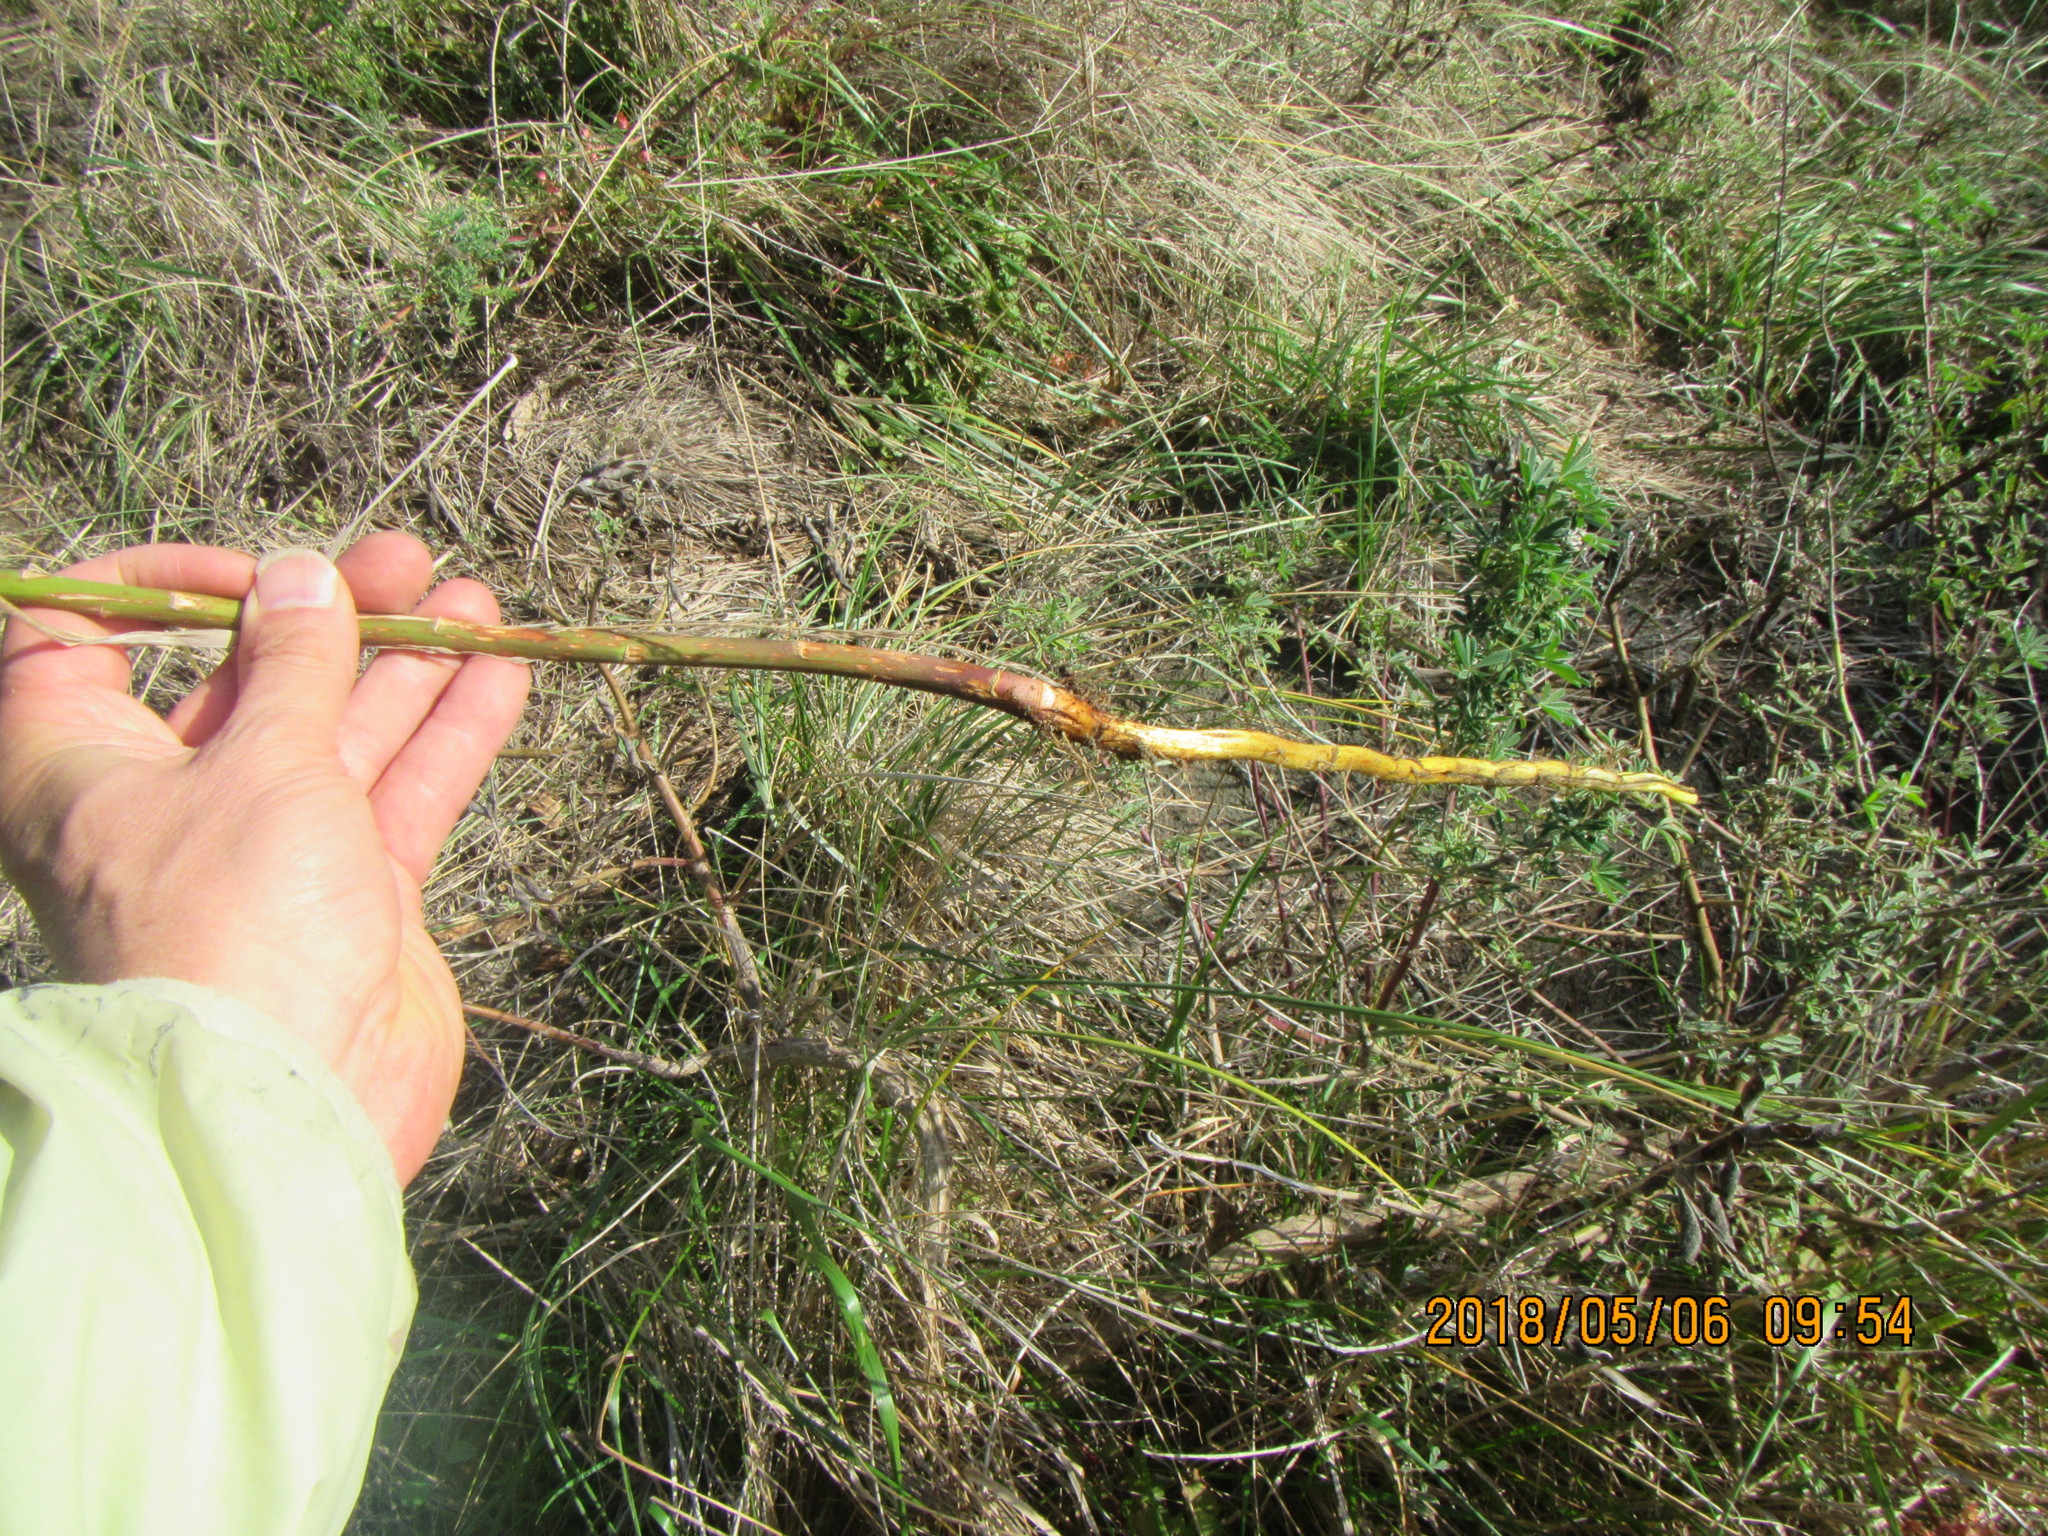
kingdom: Plantae
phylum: Tracheophyta
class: Liliopsida
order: Liliales
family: Liliaceae
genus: Lilium
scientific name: Lilium formosanum
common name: Formosa lily
